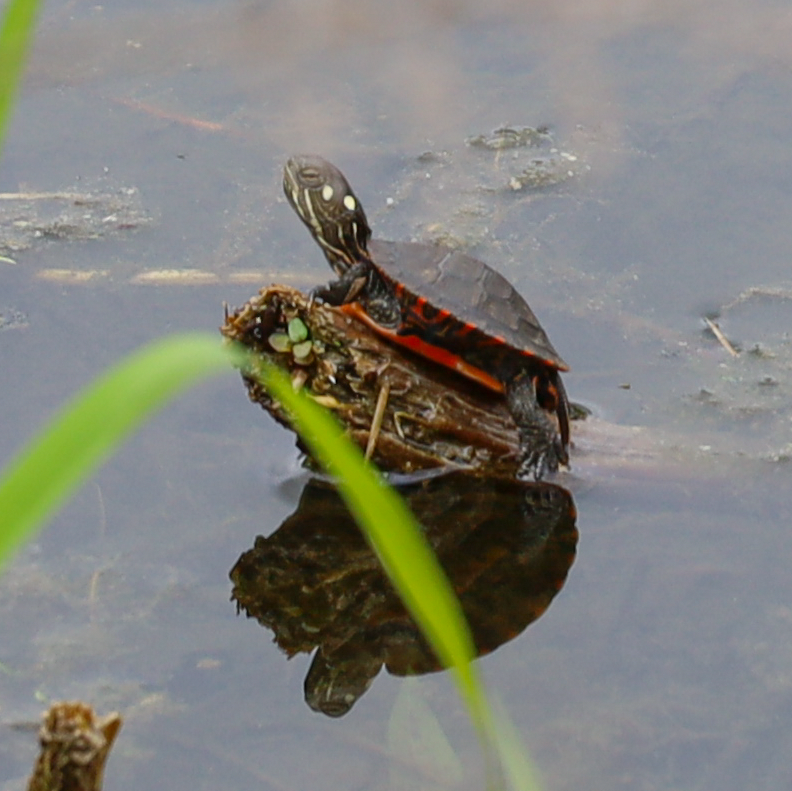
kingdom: Animalia
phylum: Chordata
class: Testudines
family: Emydidae
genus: Chrysemys
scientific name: Chrysemys picta
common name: Painted turtle
